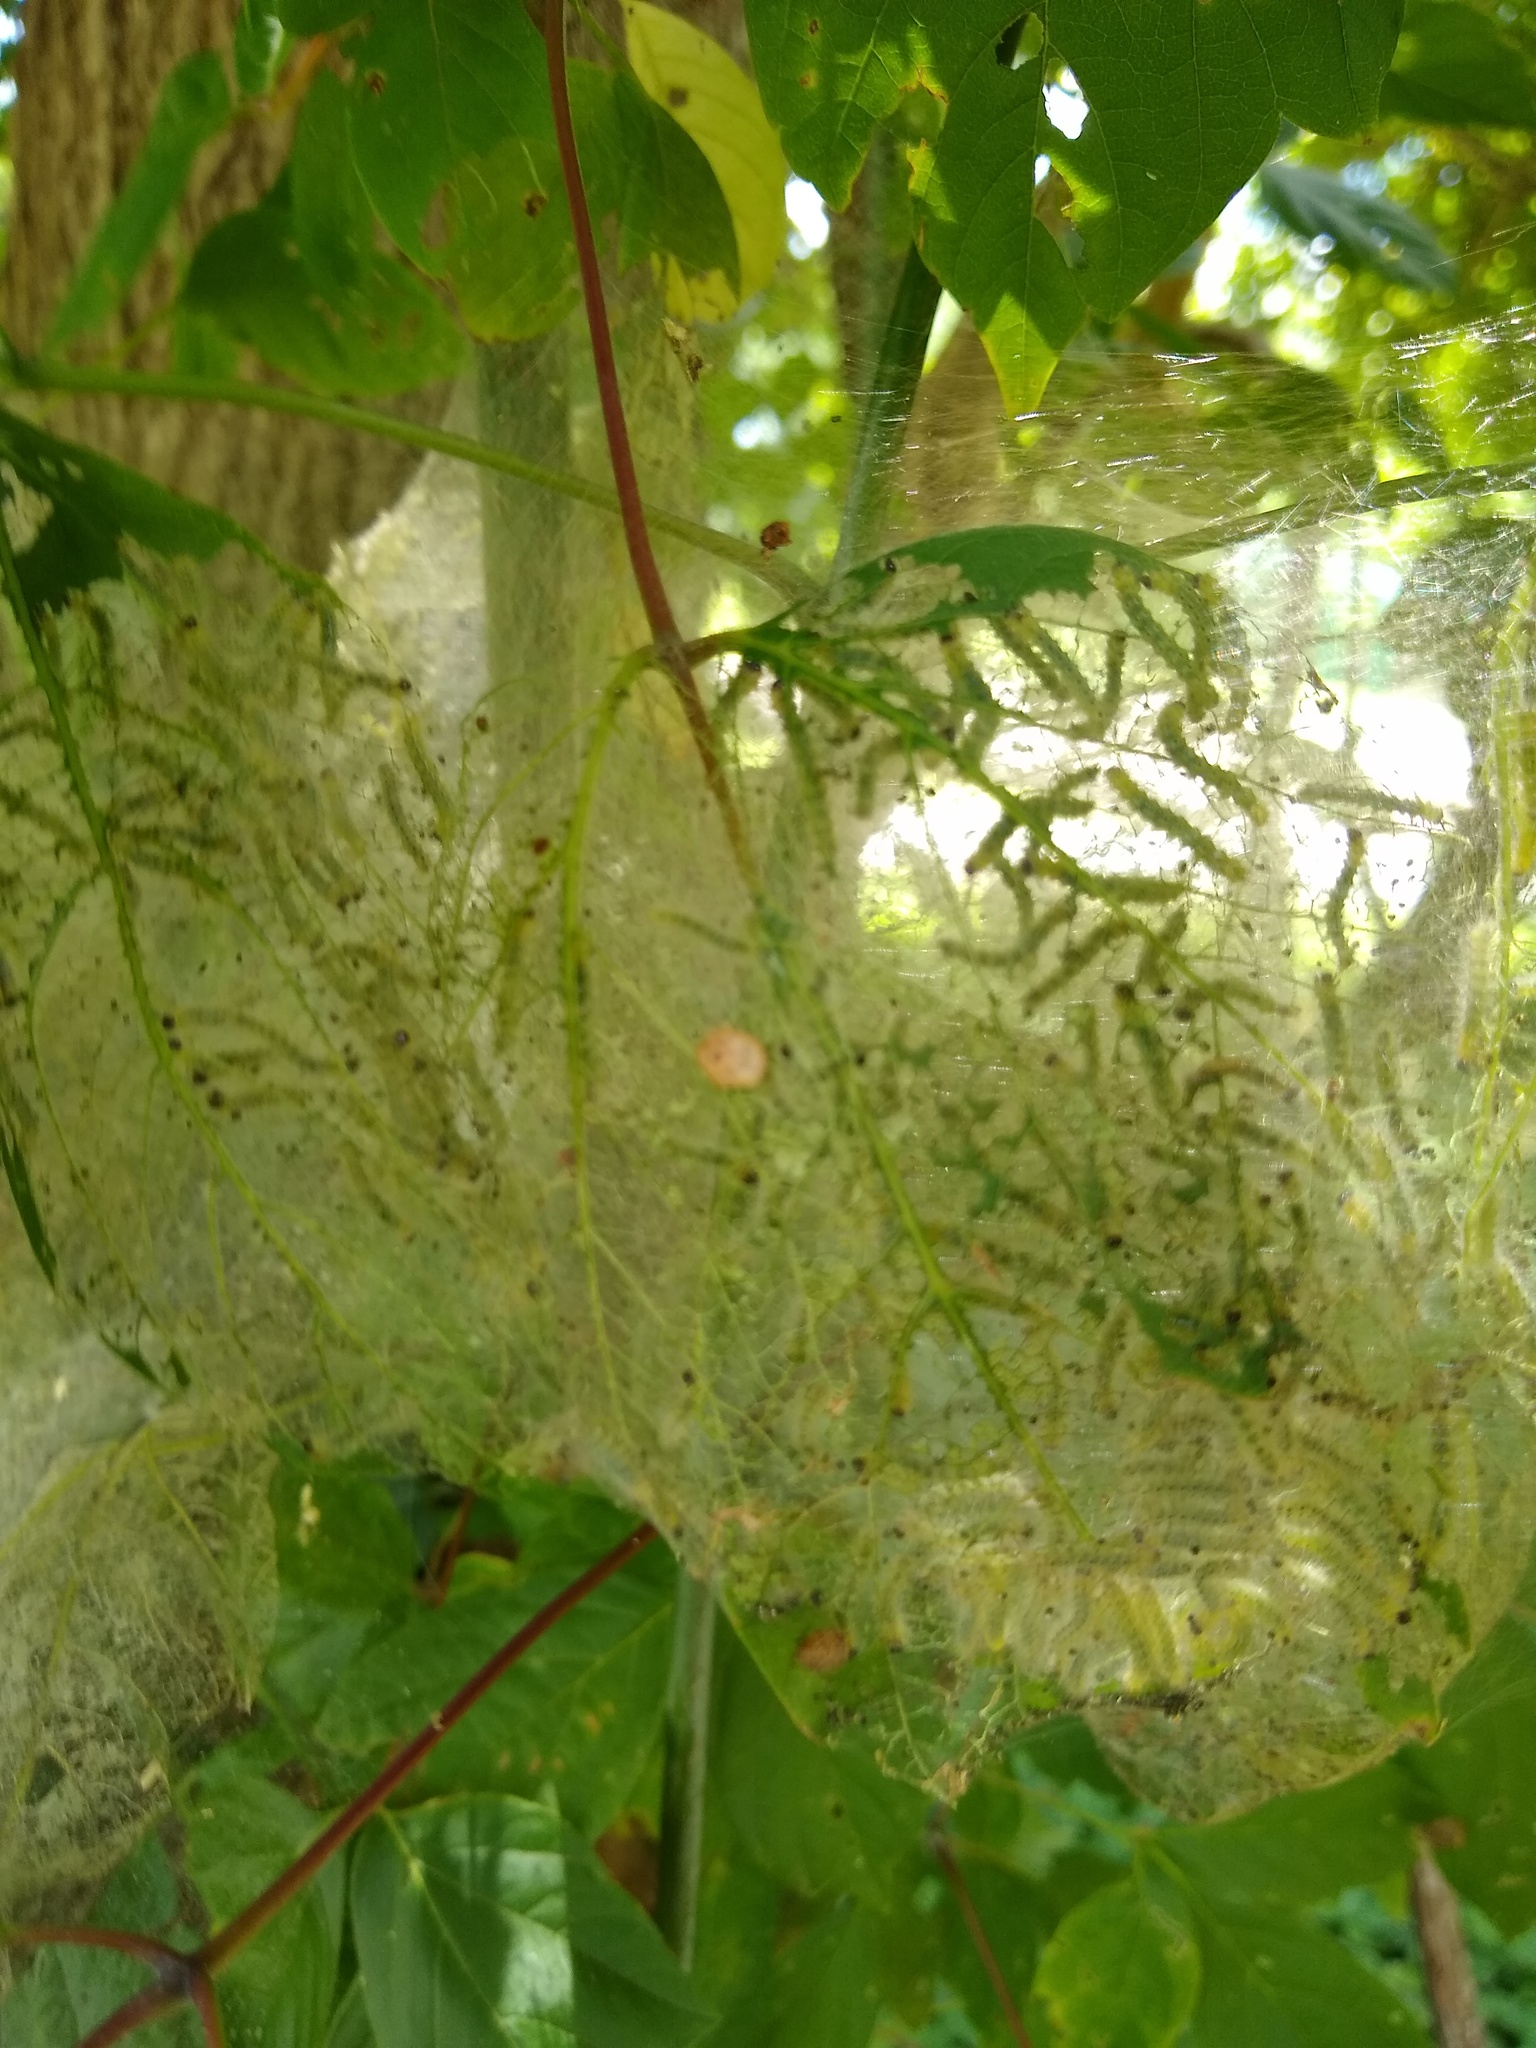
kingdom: Animalia
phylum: Arthropoda
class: Insecta
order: Lepidoptera
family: Erebidae
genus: Hyphantria
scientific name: Hyphantria cunea
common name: American white moth
